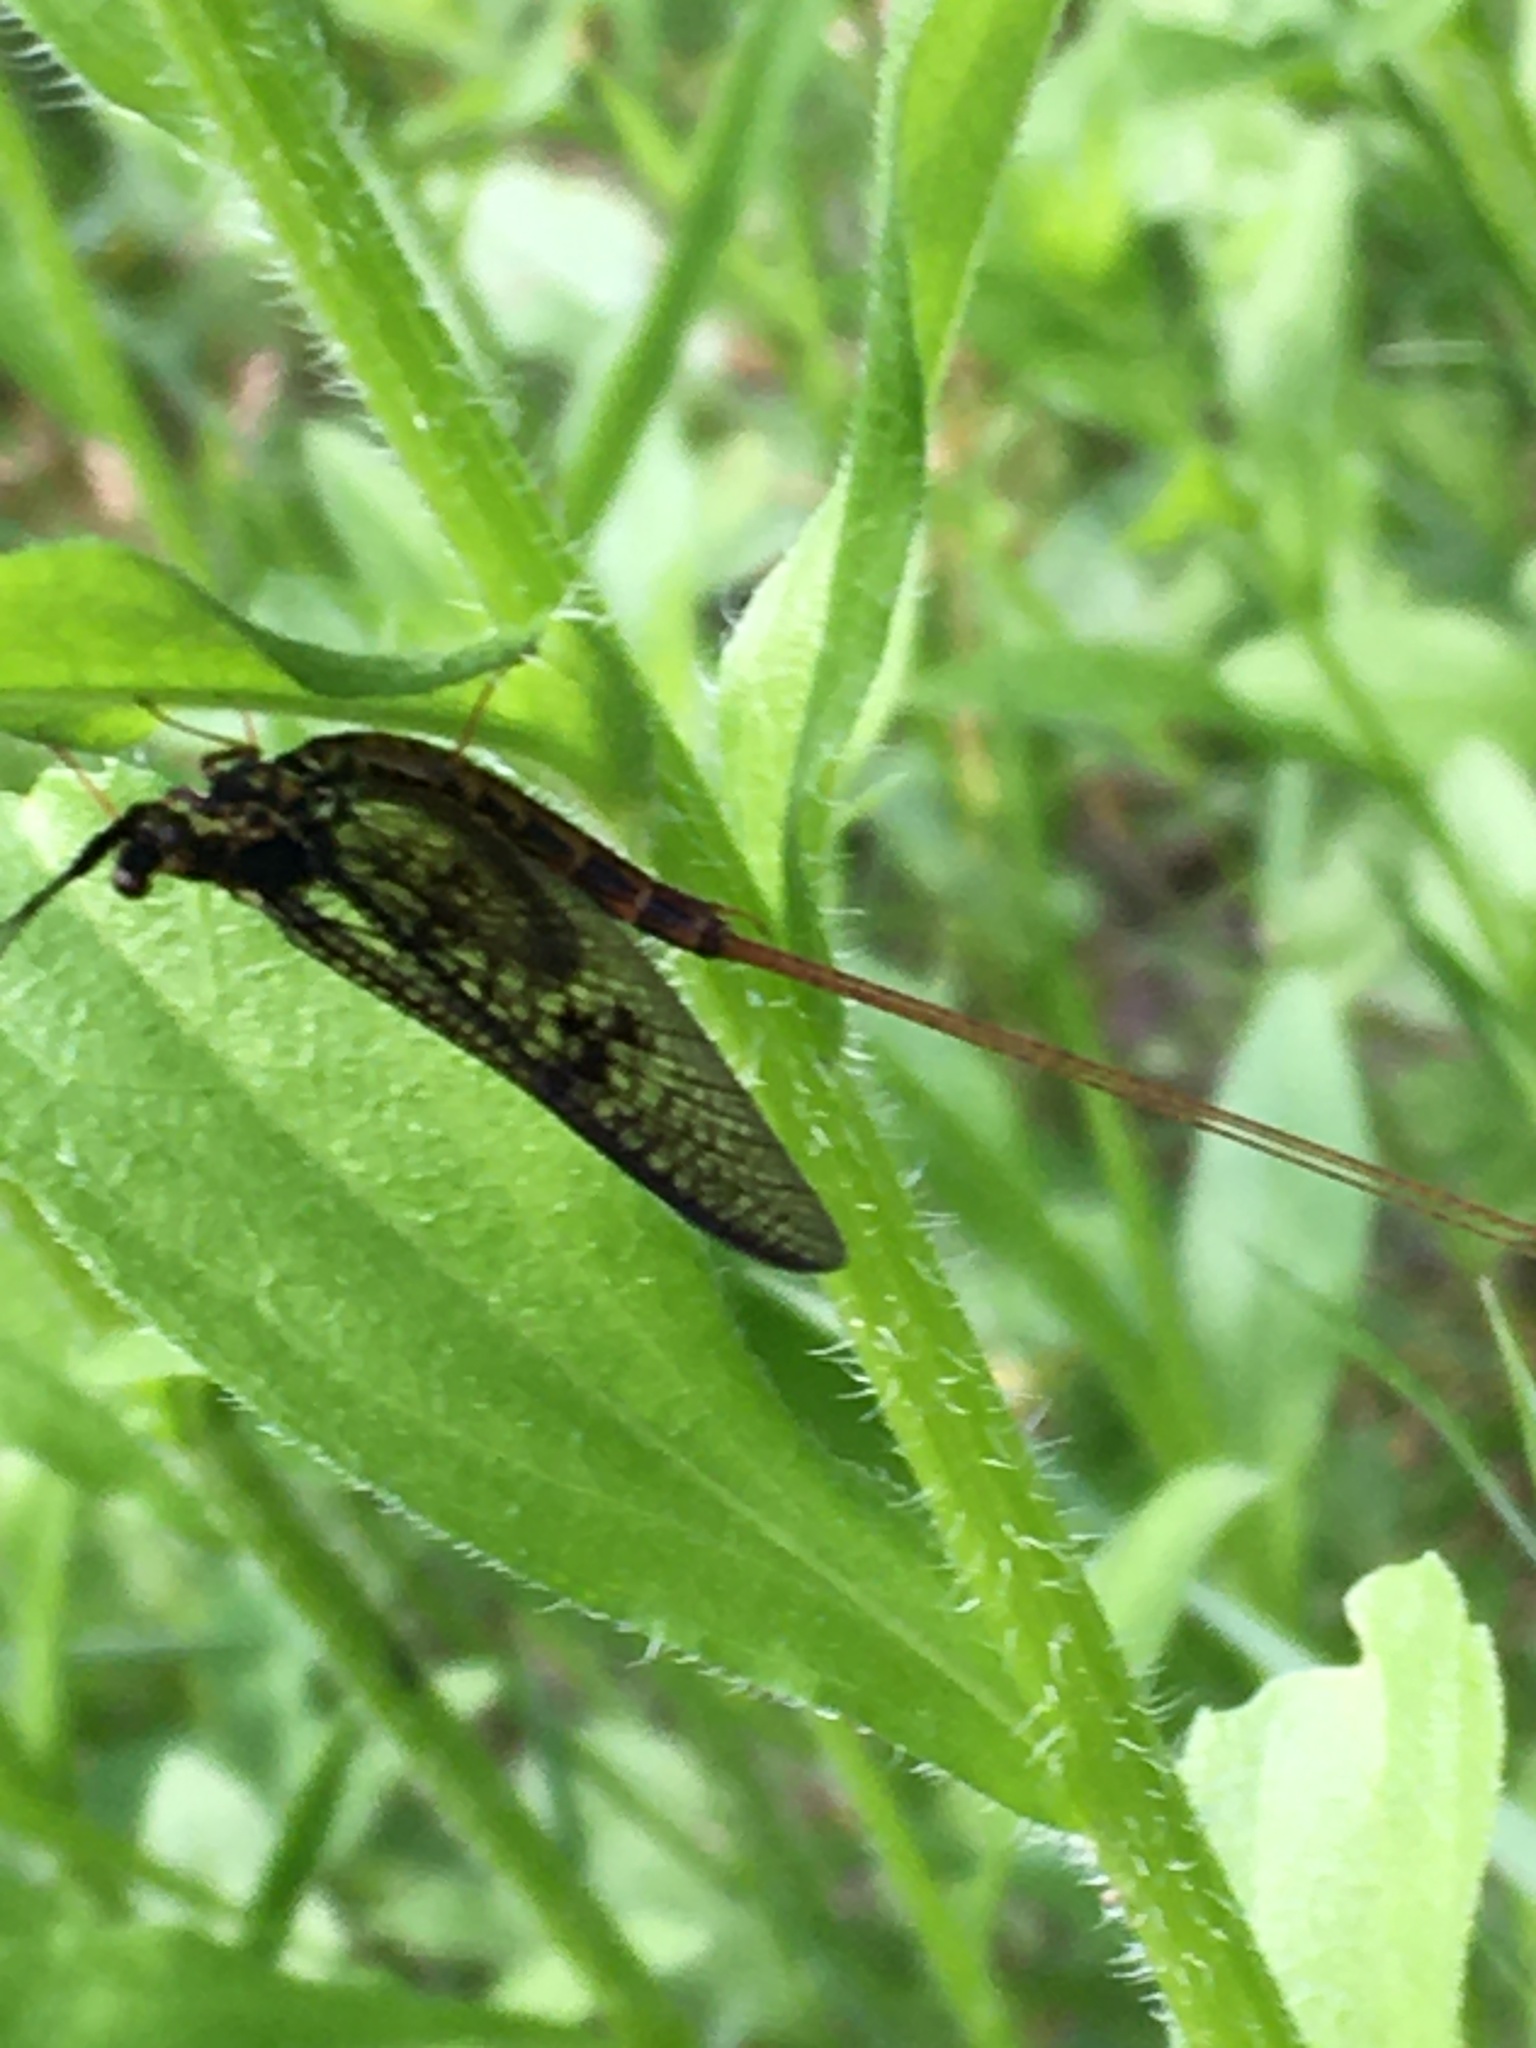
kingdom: Animalia
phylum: Arthropoda
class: Insecta
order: Ephemeroptera
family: Ephemeridae
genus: Ephemera
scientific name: Ephemera vulgata
